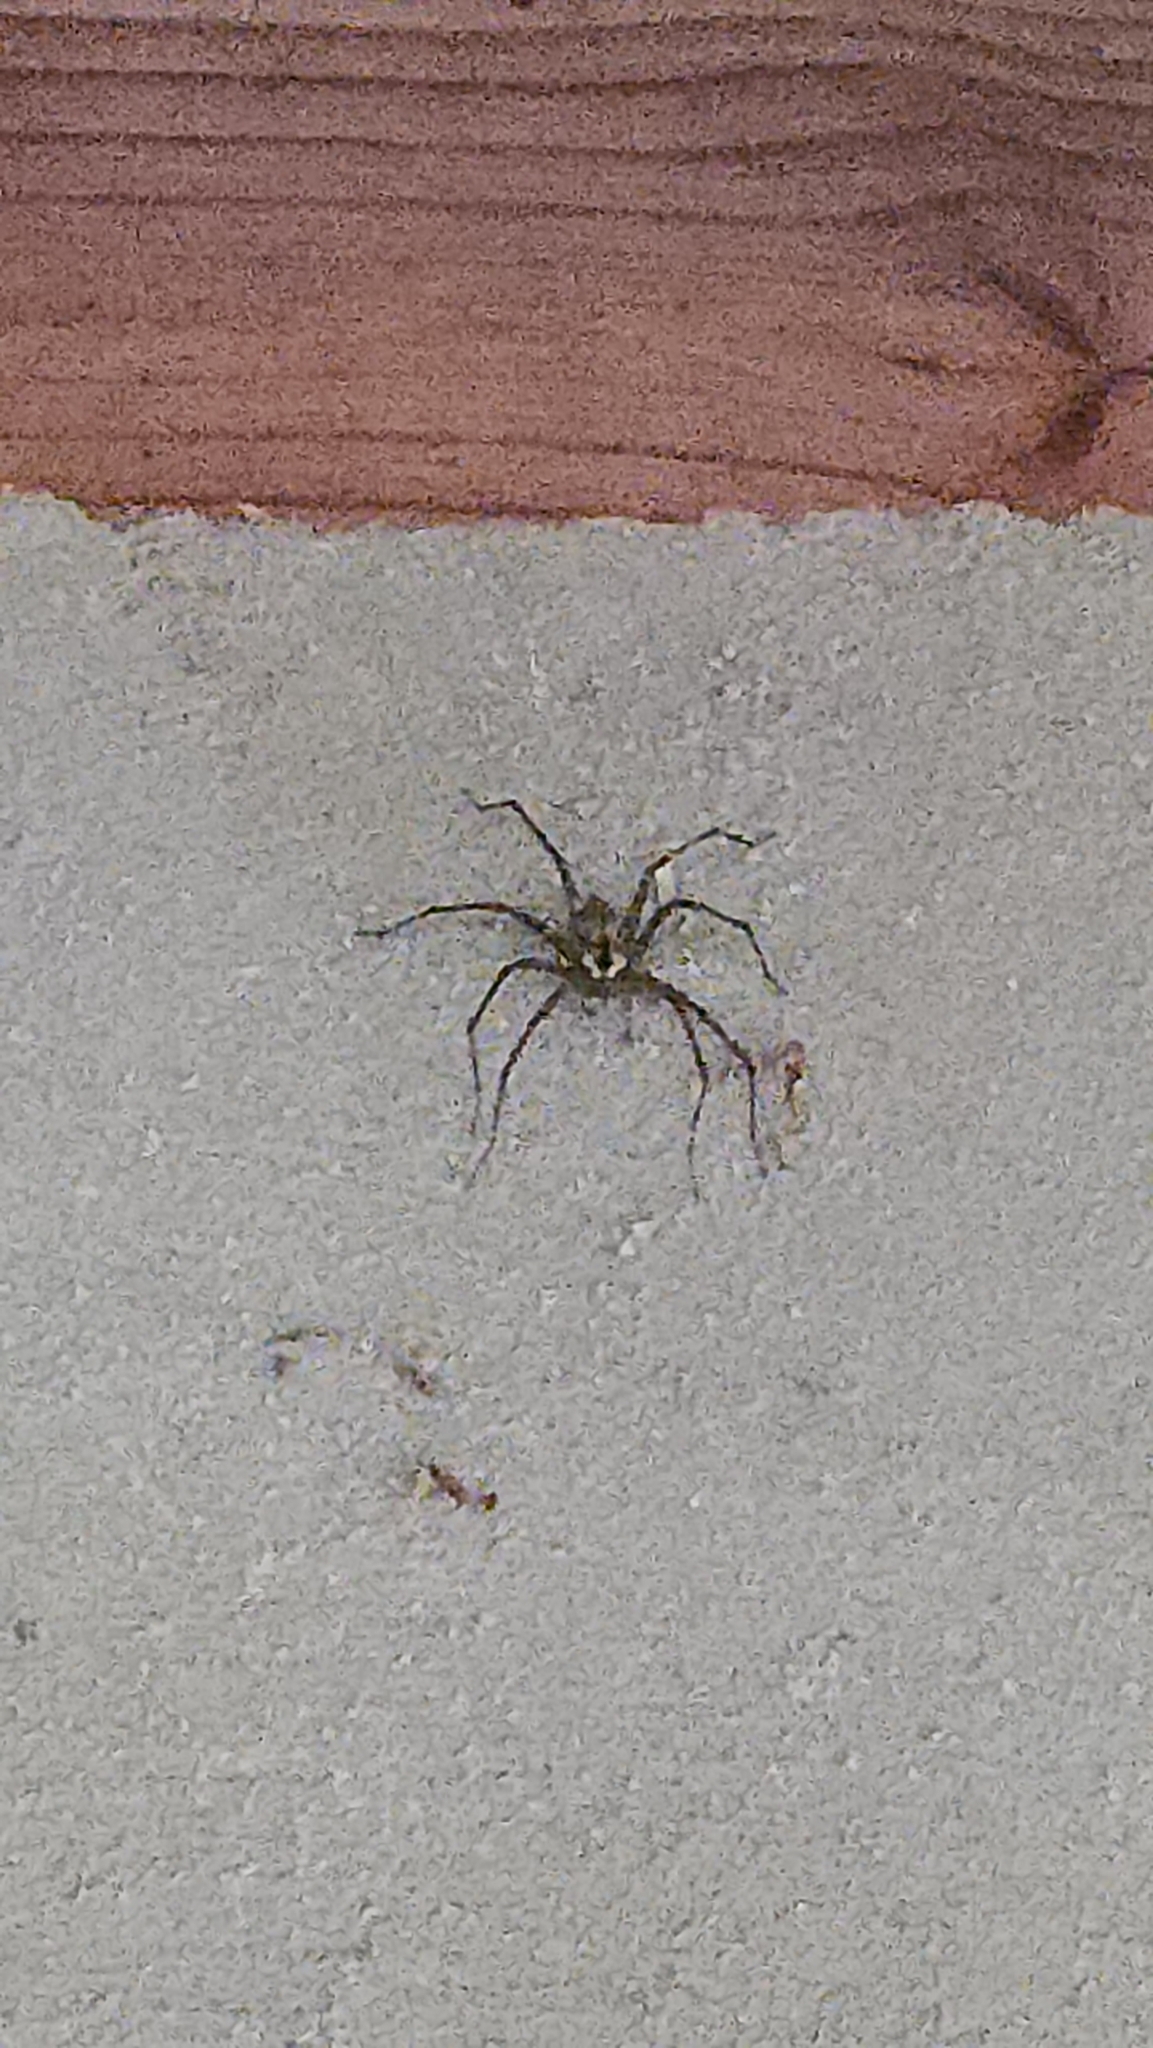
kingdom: Animalia
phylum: Arthropoda
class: Arachnida
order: Araneae
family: Pisauridae
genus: Dolomedes
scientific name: Dolomedes albineus
